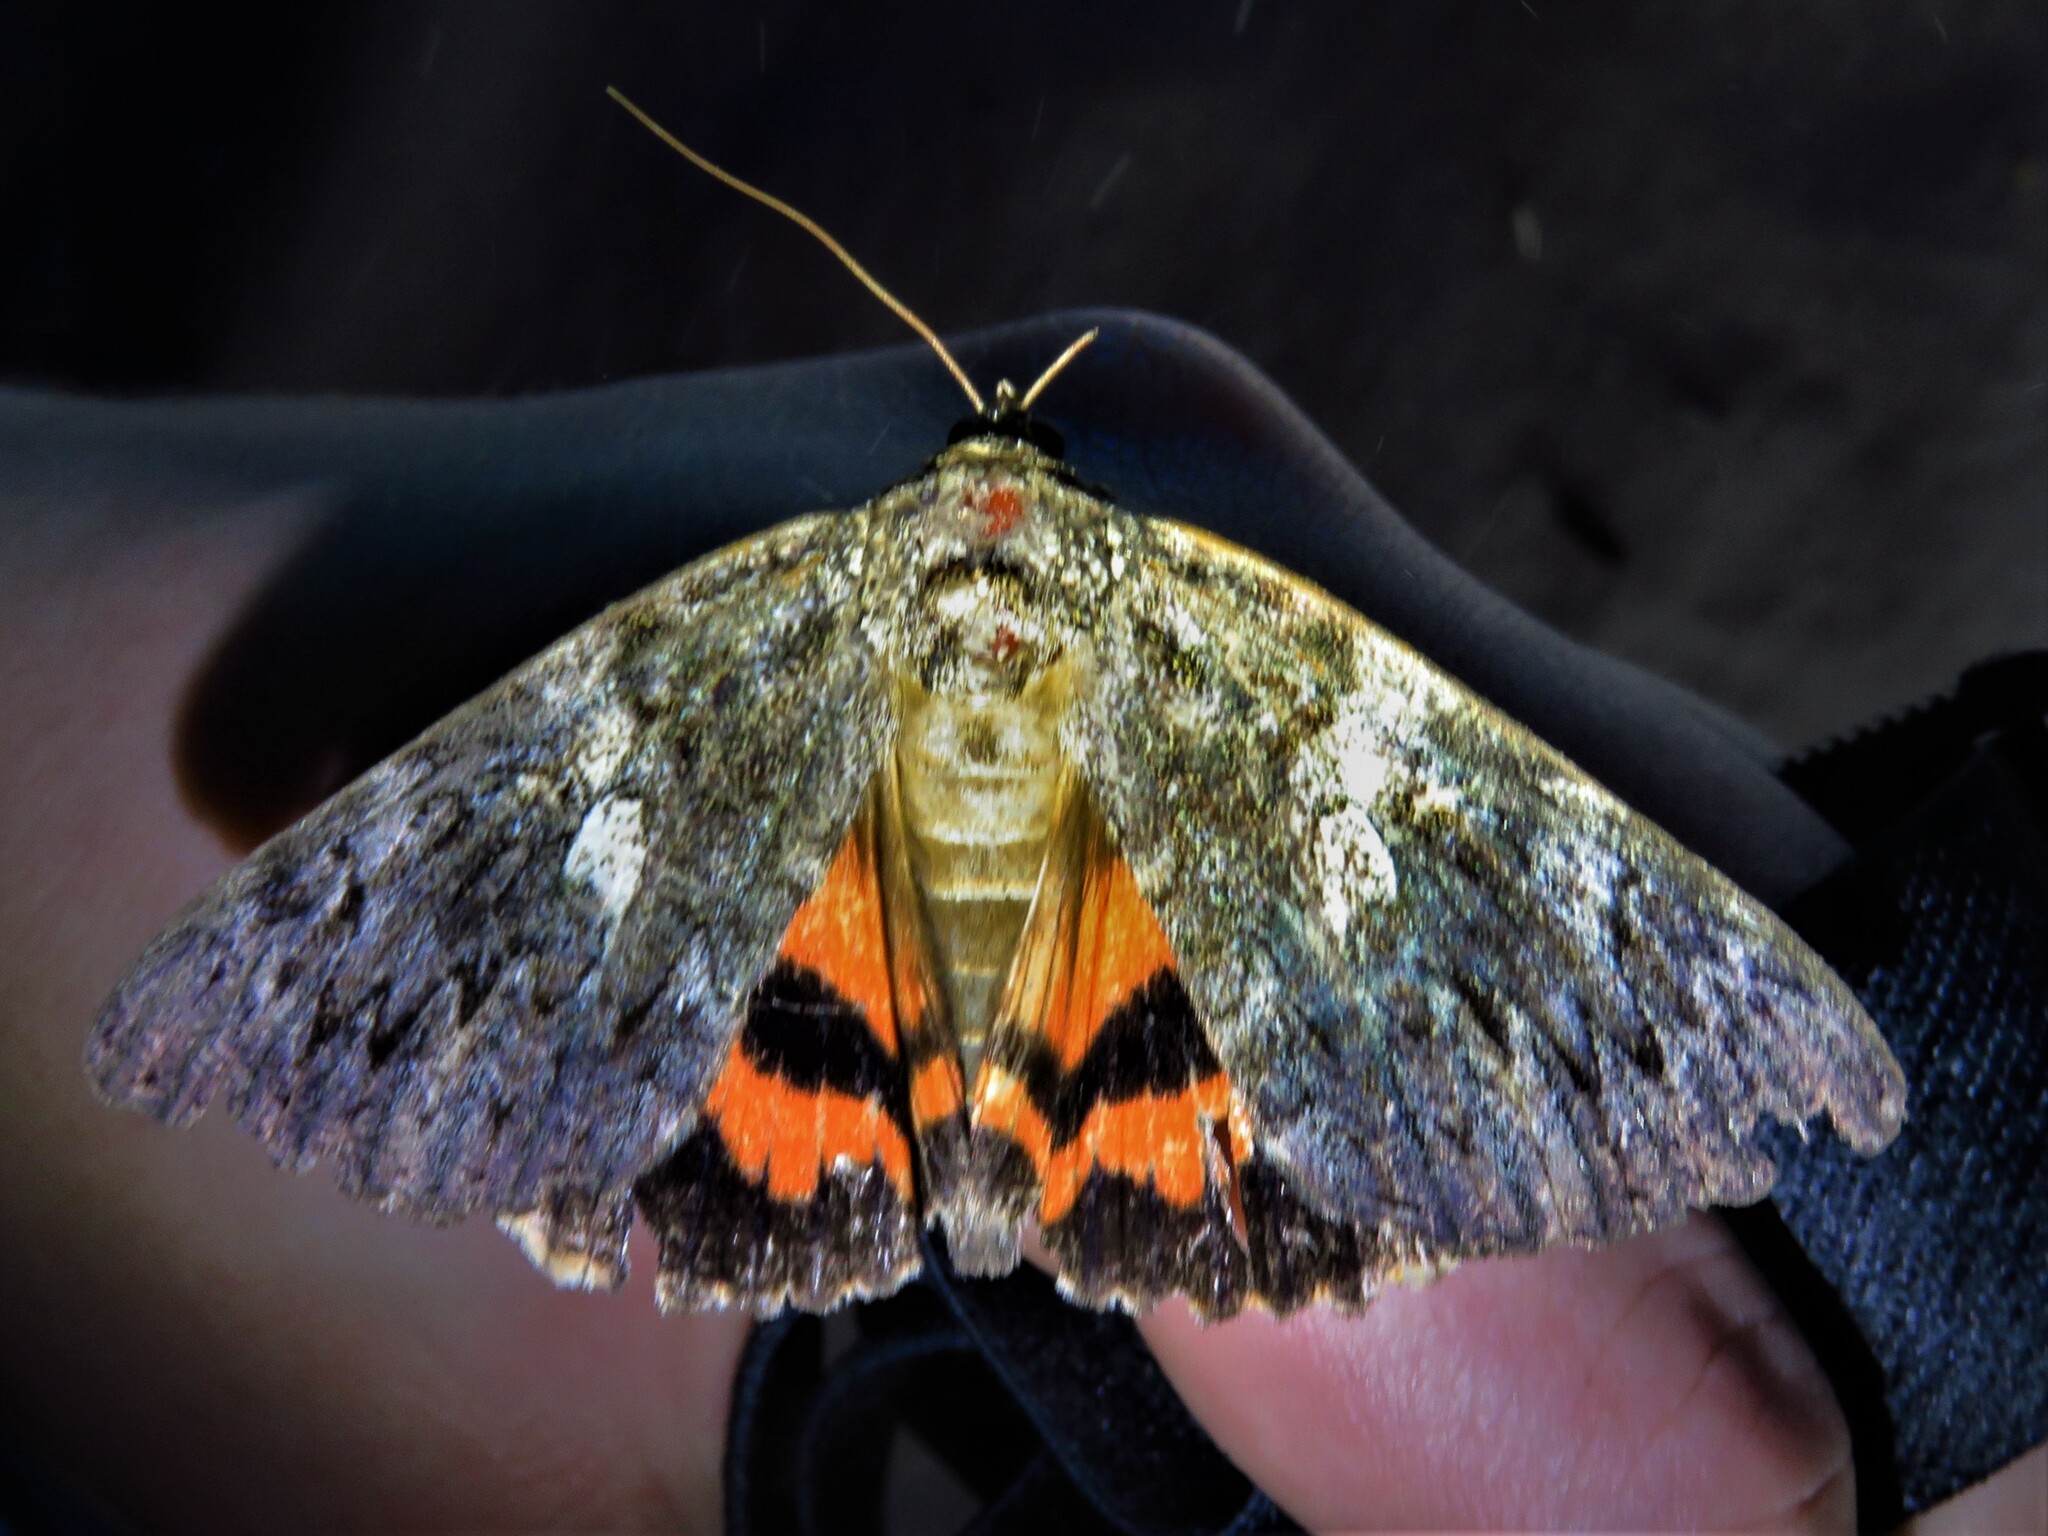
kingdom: Animalia
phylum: Arthropoda
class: Insecta
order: Lepidoptera
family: Erebidae
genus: Catocala
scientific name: Catocala ilia
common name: Ilia underwing
